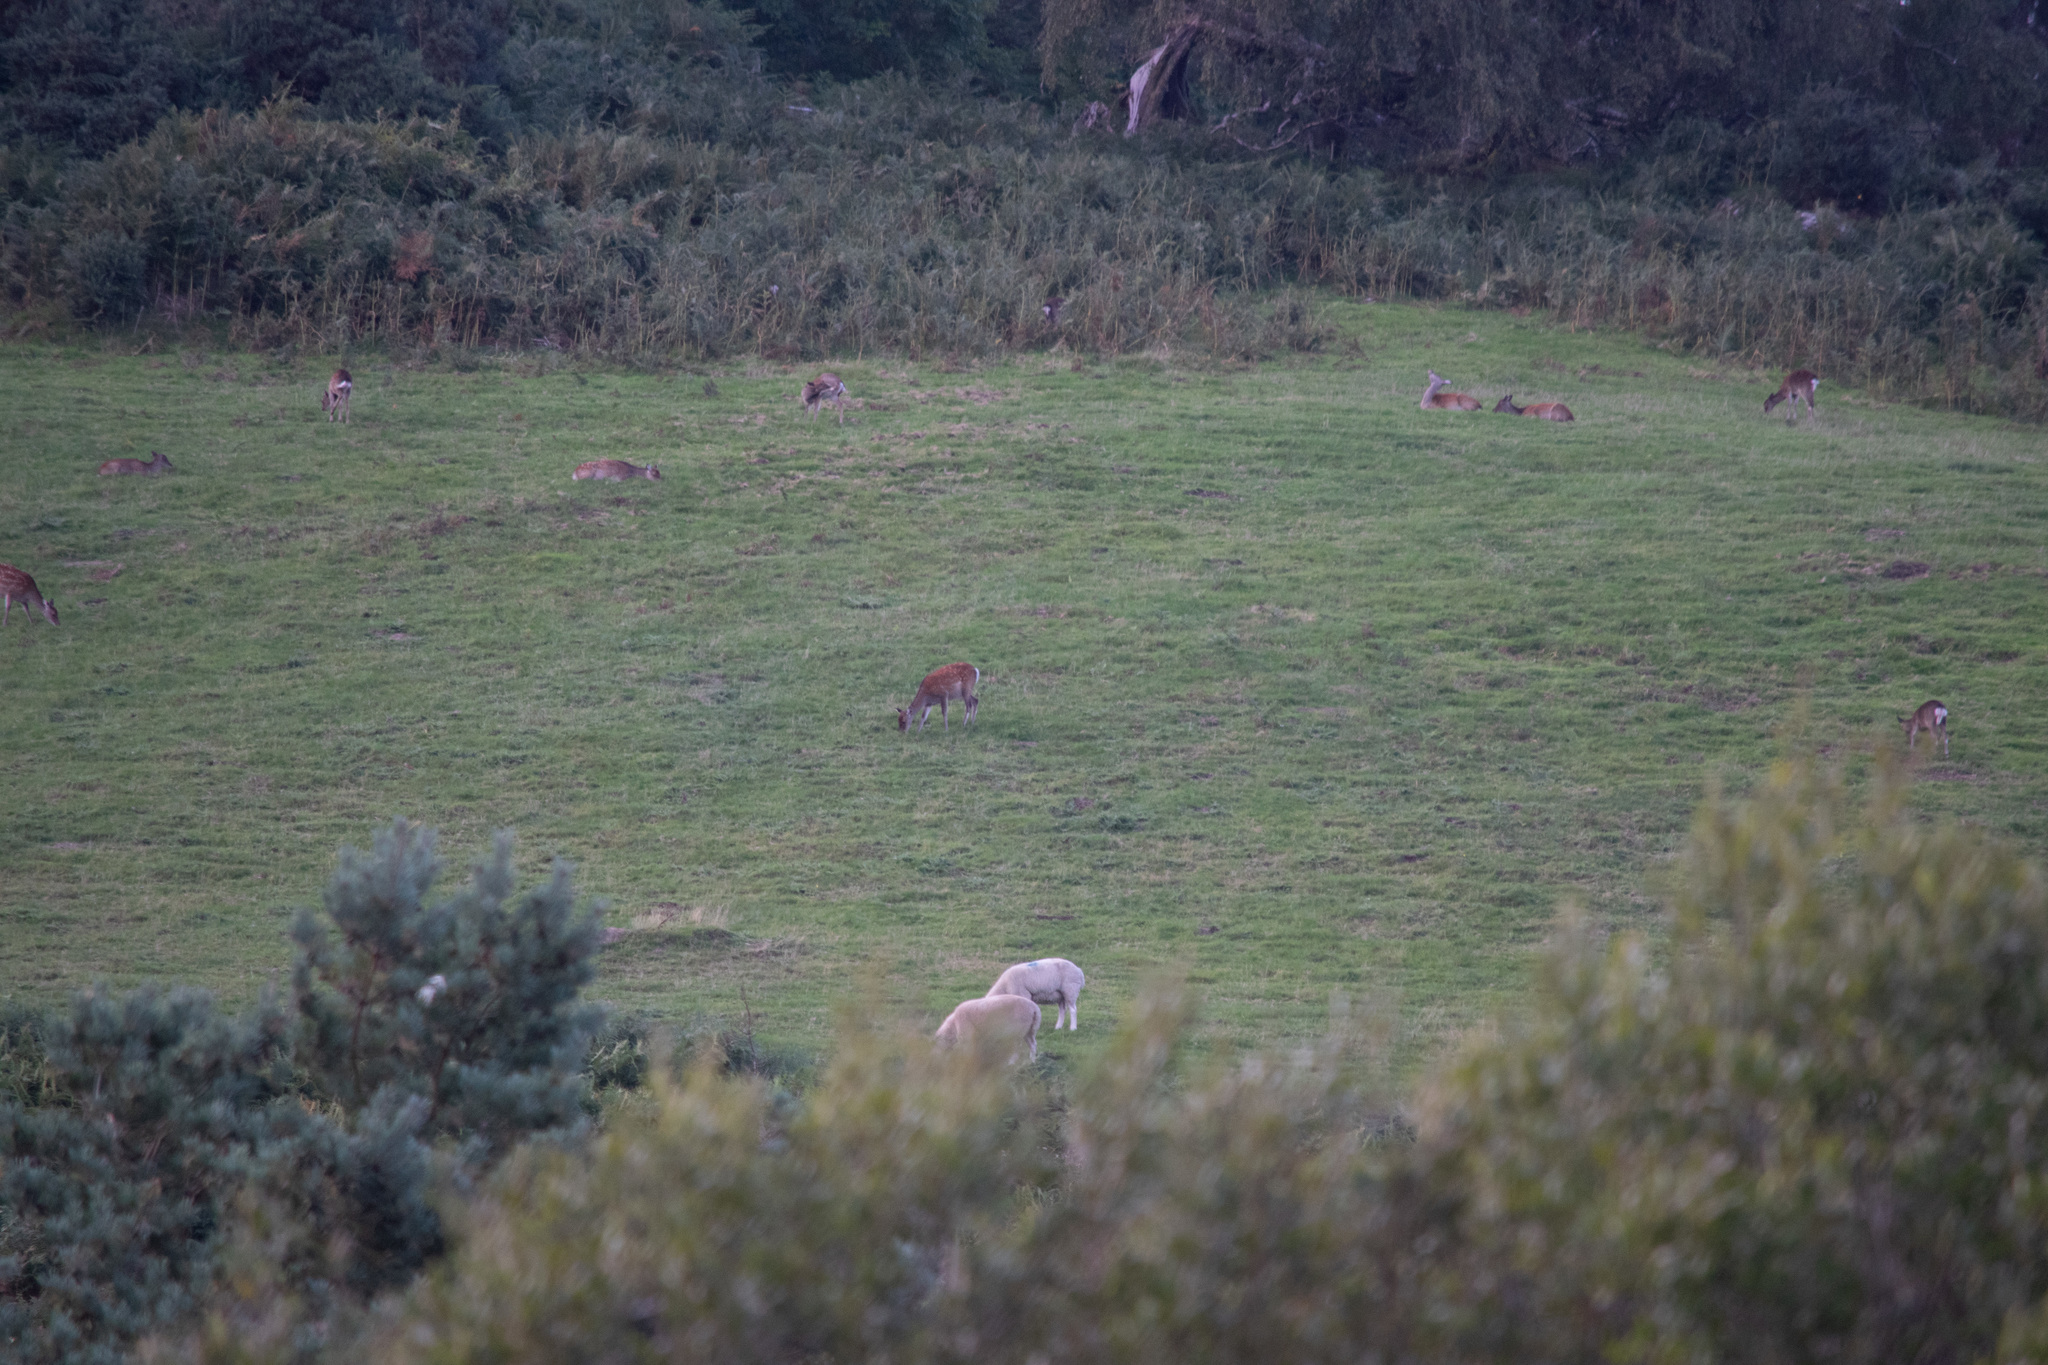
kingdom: Animalia
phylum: Chordata
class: Mammalia
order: Artiodactyla
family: Cervidae
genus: Cervus
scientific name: Cervus nippon
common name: Sika deer
